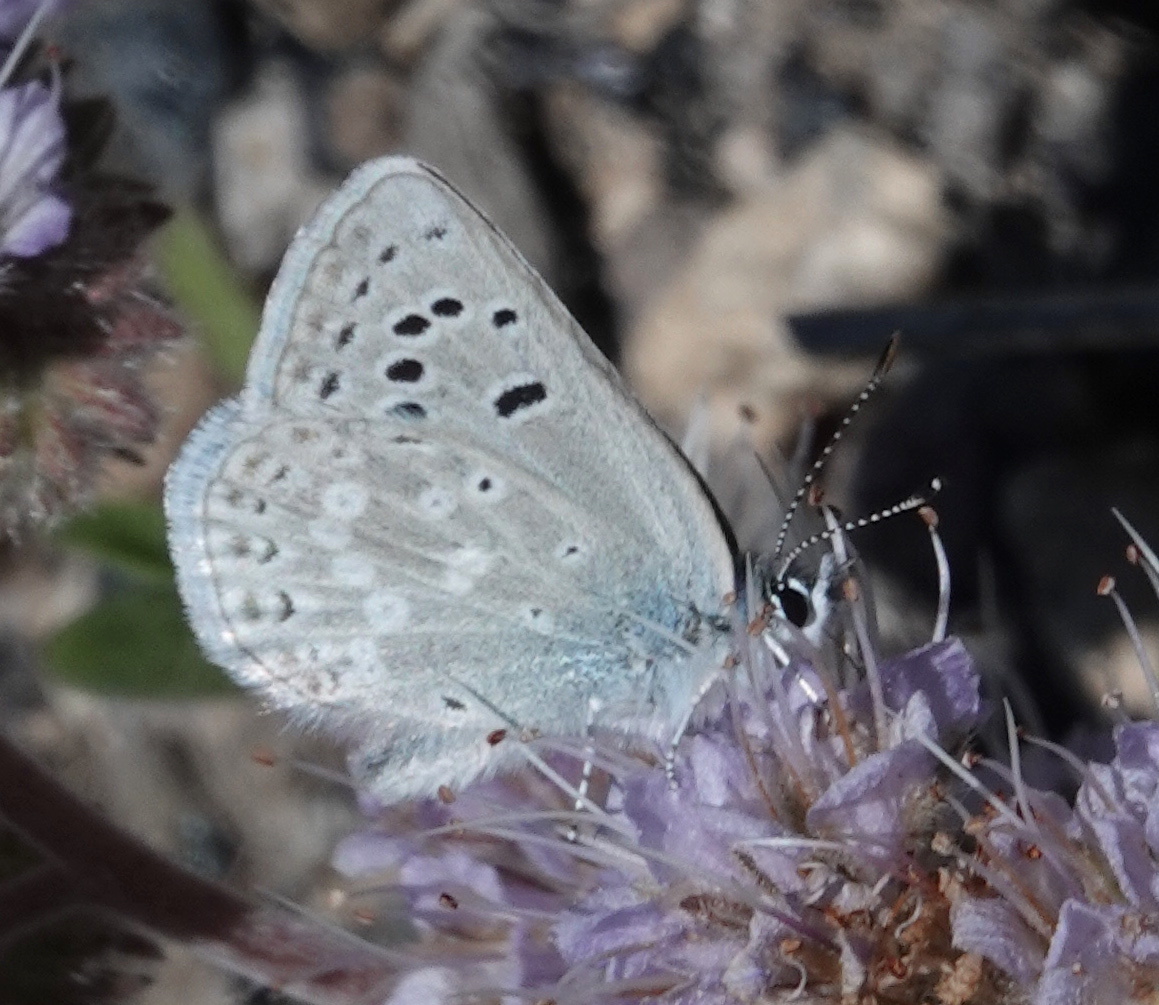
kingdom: Animalia
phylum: Arthropoda
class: Insecta
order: Lepidoptera
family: Lycaenidae
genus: Icaricia
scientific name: Icaricia icarioides
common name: Boisduval's blue
